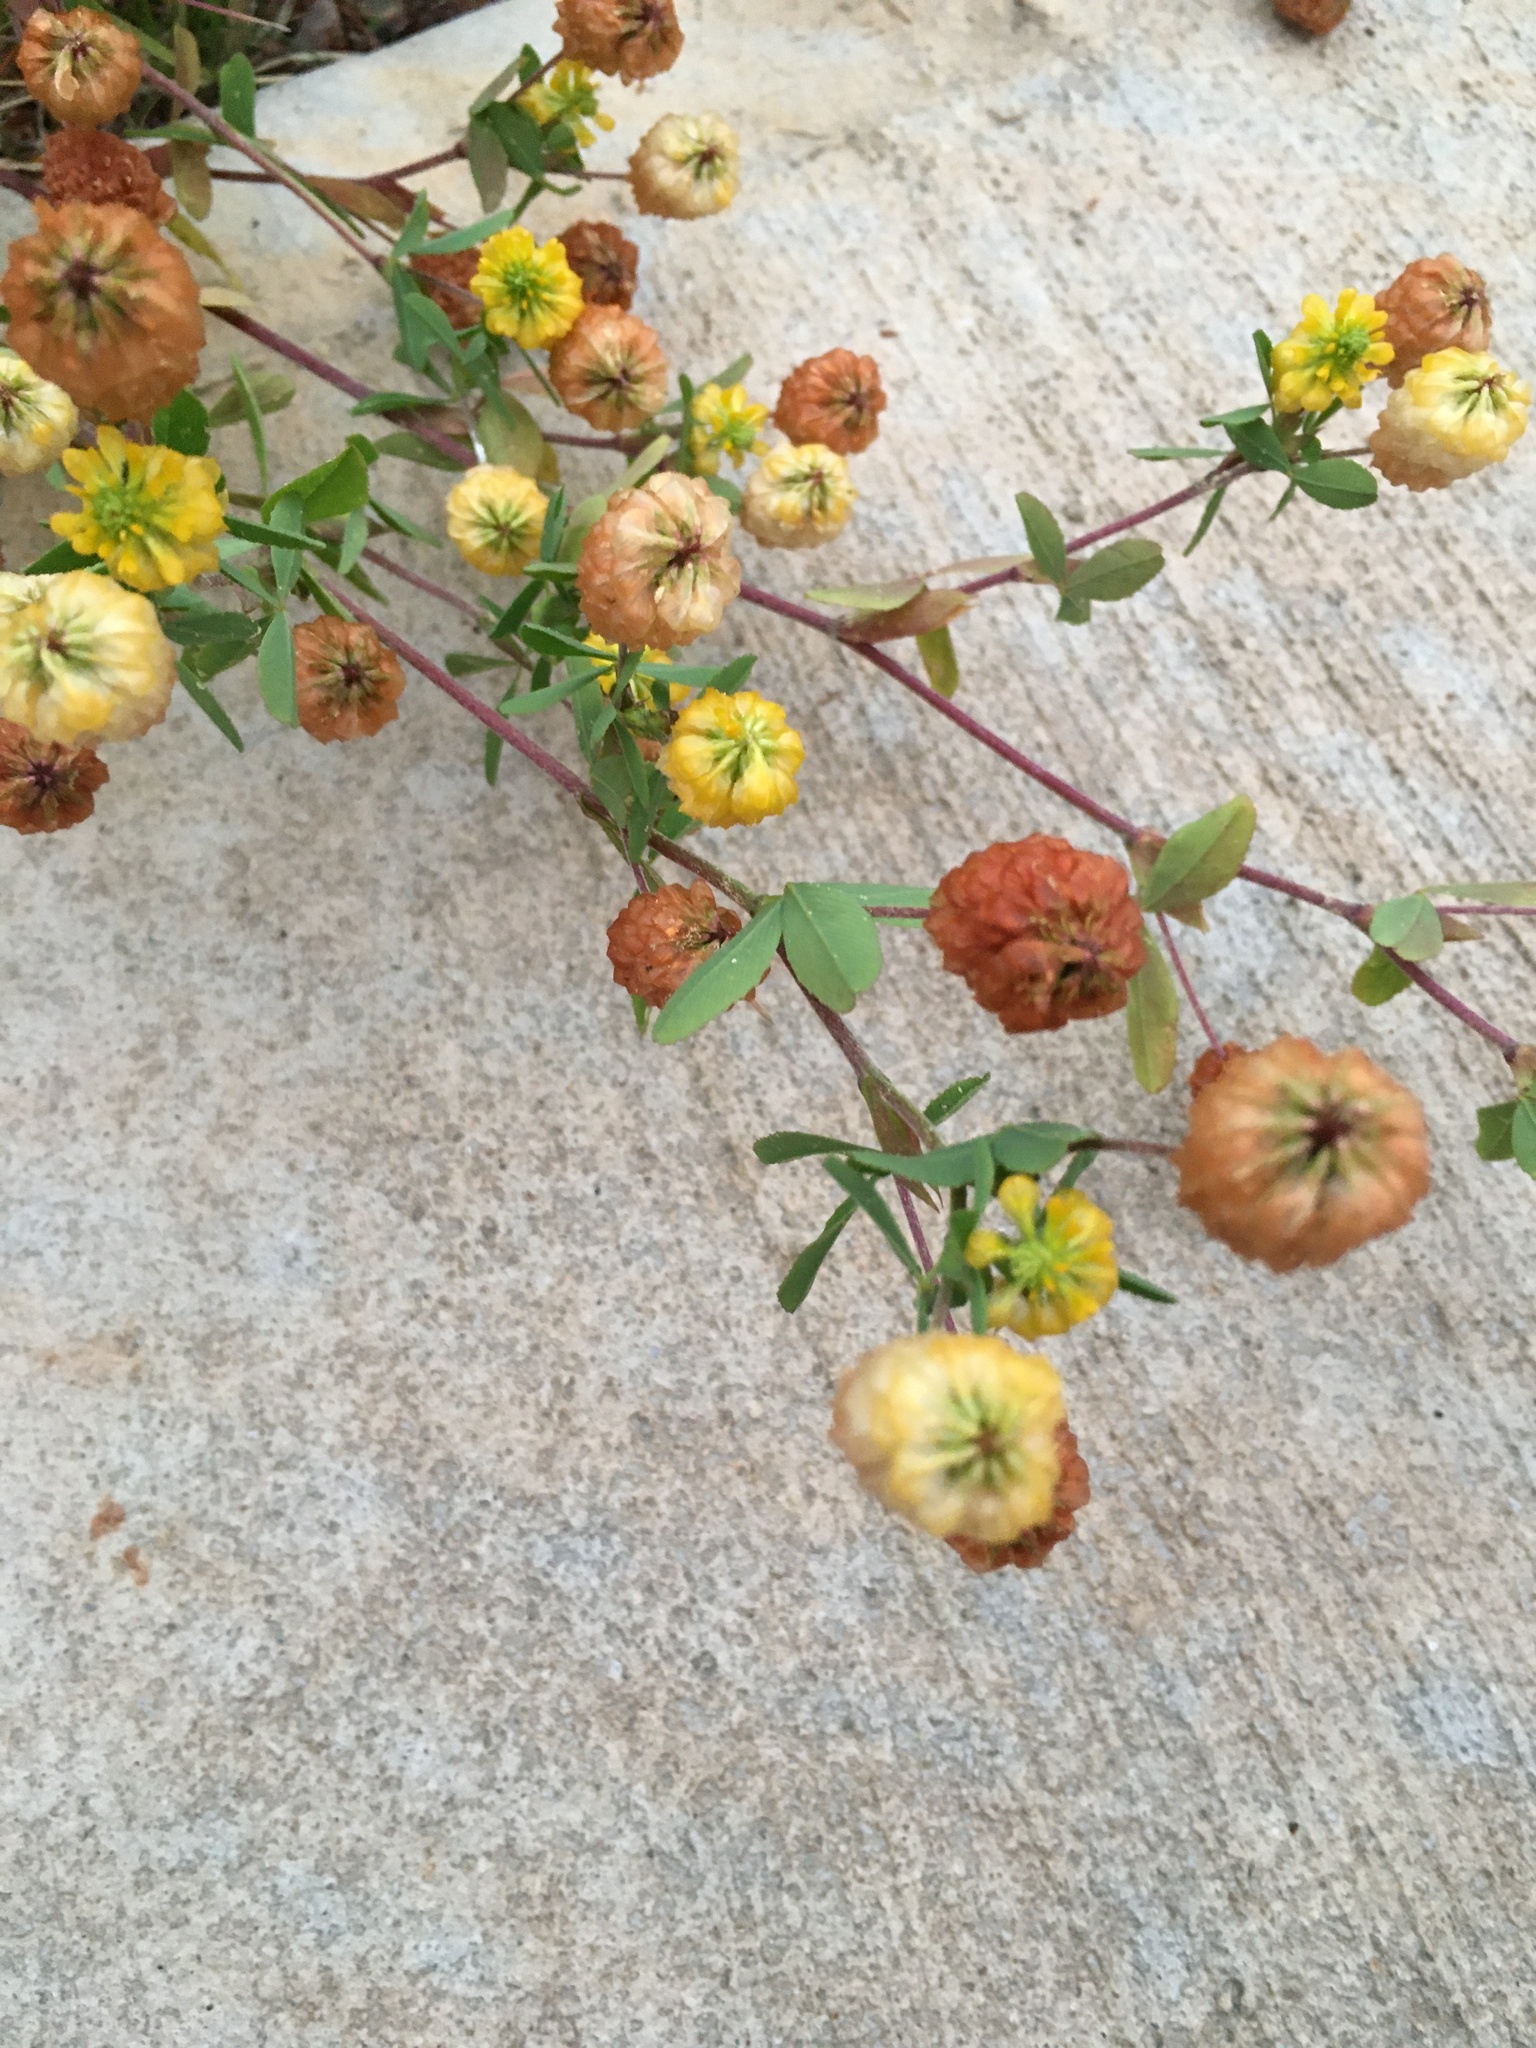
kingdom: Plantae
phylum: Tracheophyta
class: Magnoliopsida
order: Fabales
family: Fabaceae
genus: Trifolium
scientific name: Trifolium aureum
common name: Golden clover
